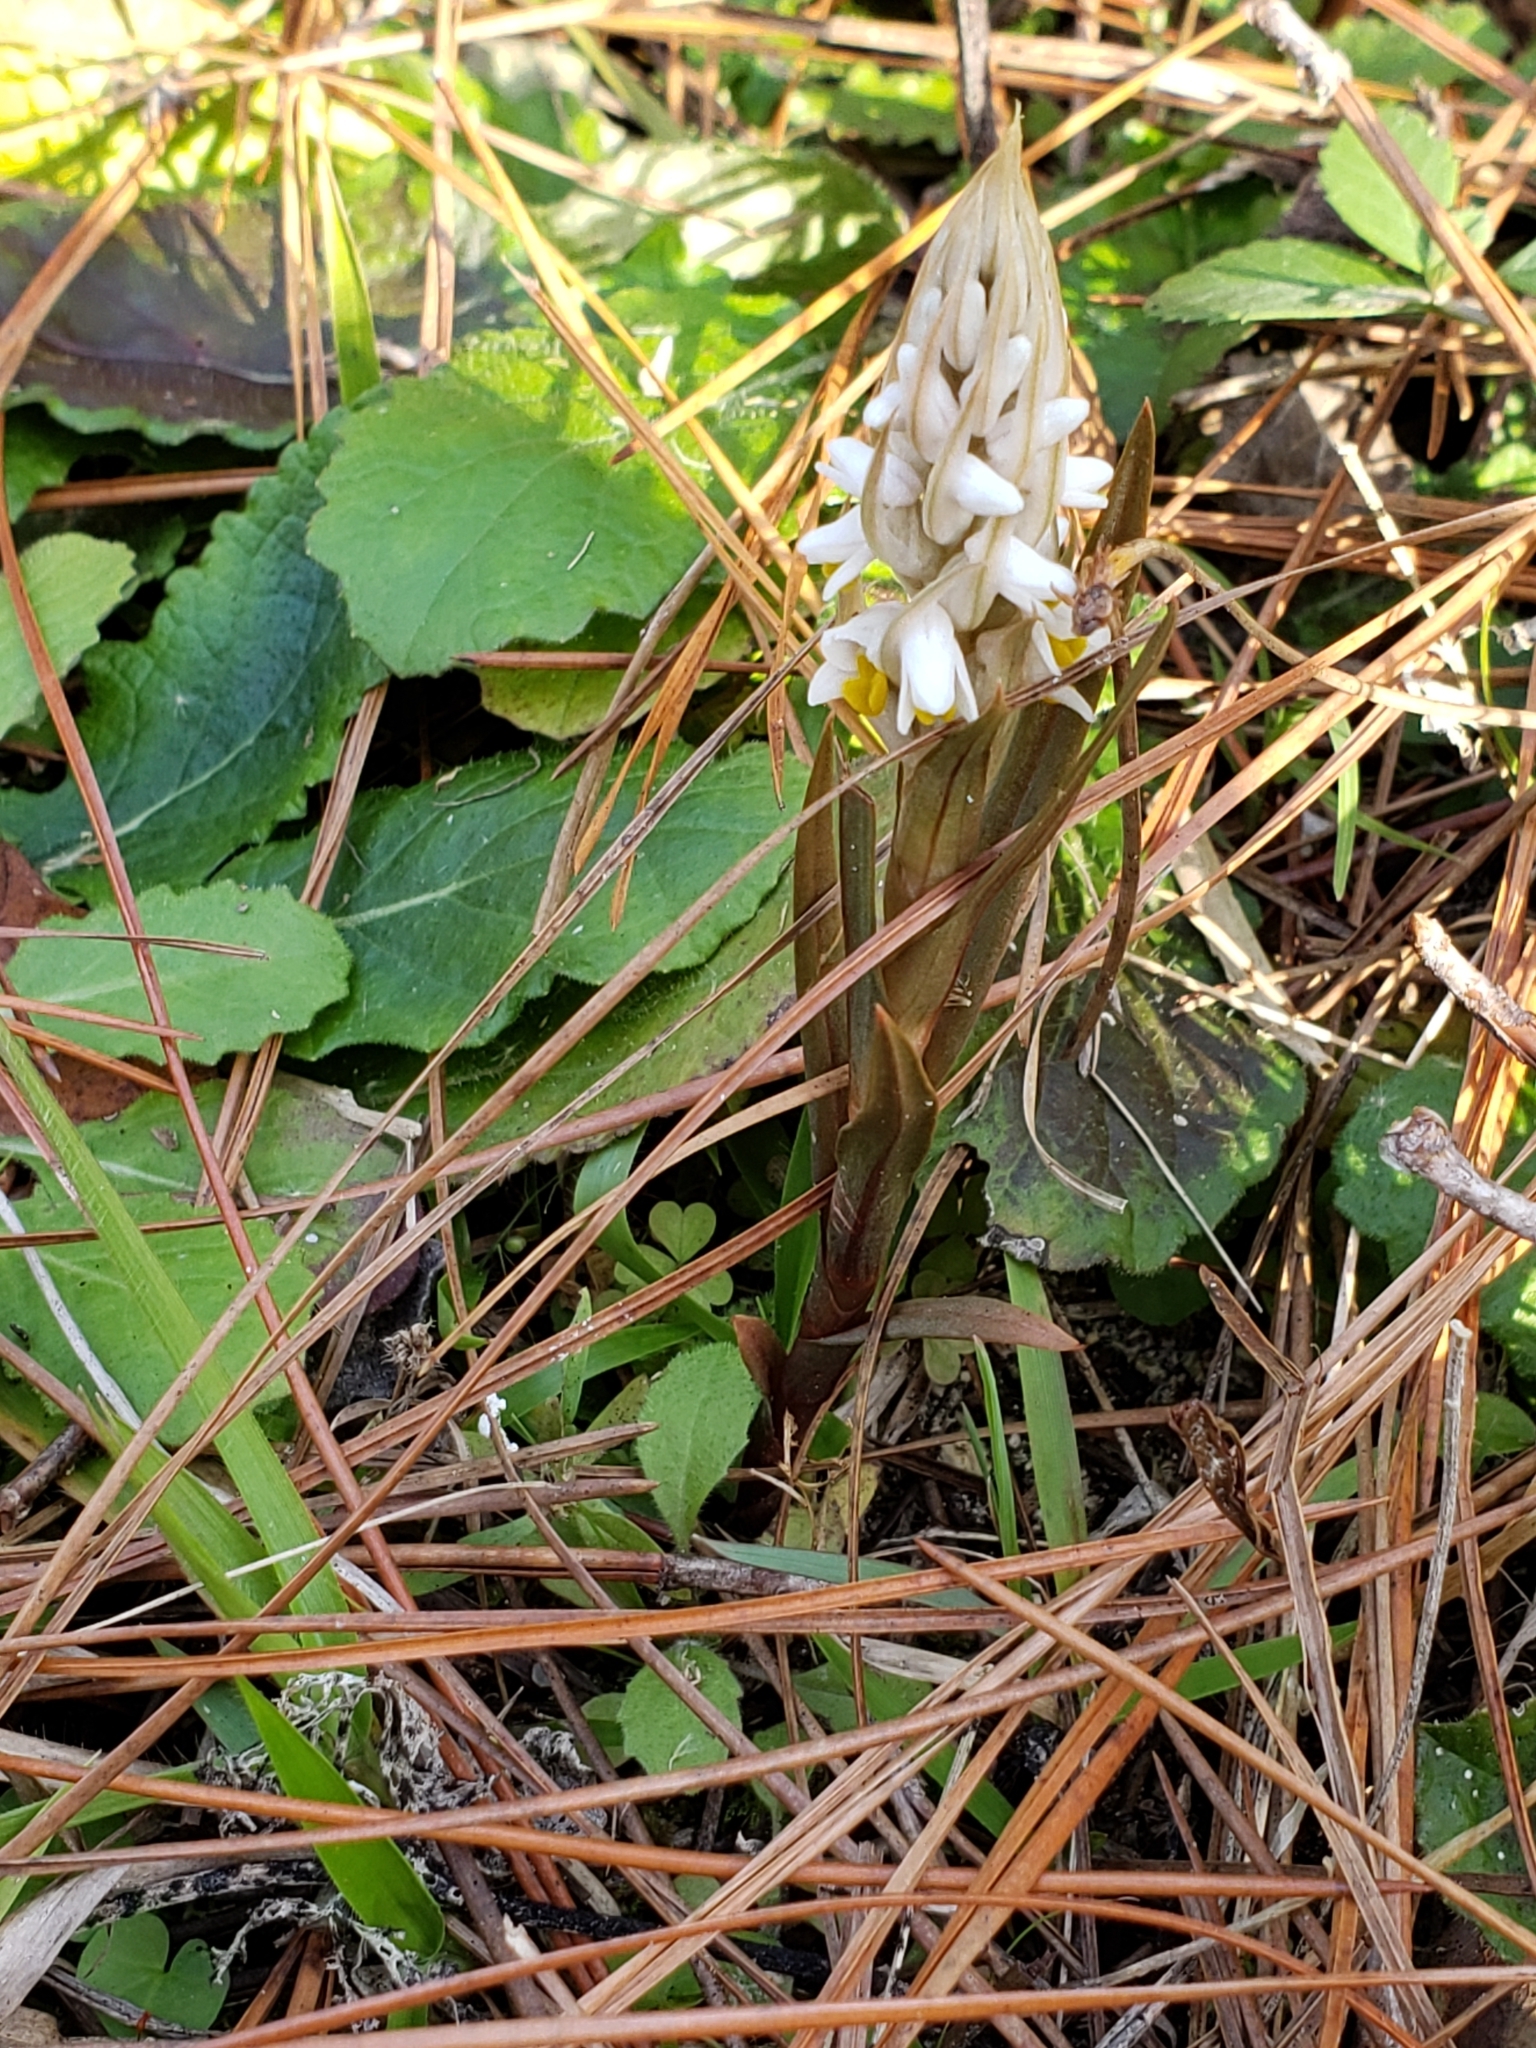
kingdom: Plantae
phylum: Tracheophyta
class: Liliopsida
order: Asparagales
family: Orchidaceae
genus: Zeuxine
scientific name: Zeuxine strateumatica
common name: Soldier's orchid
